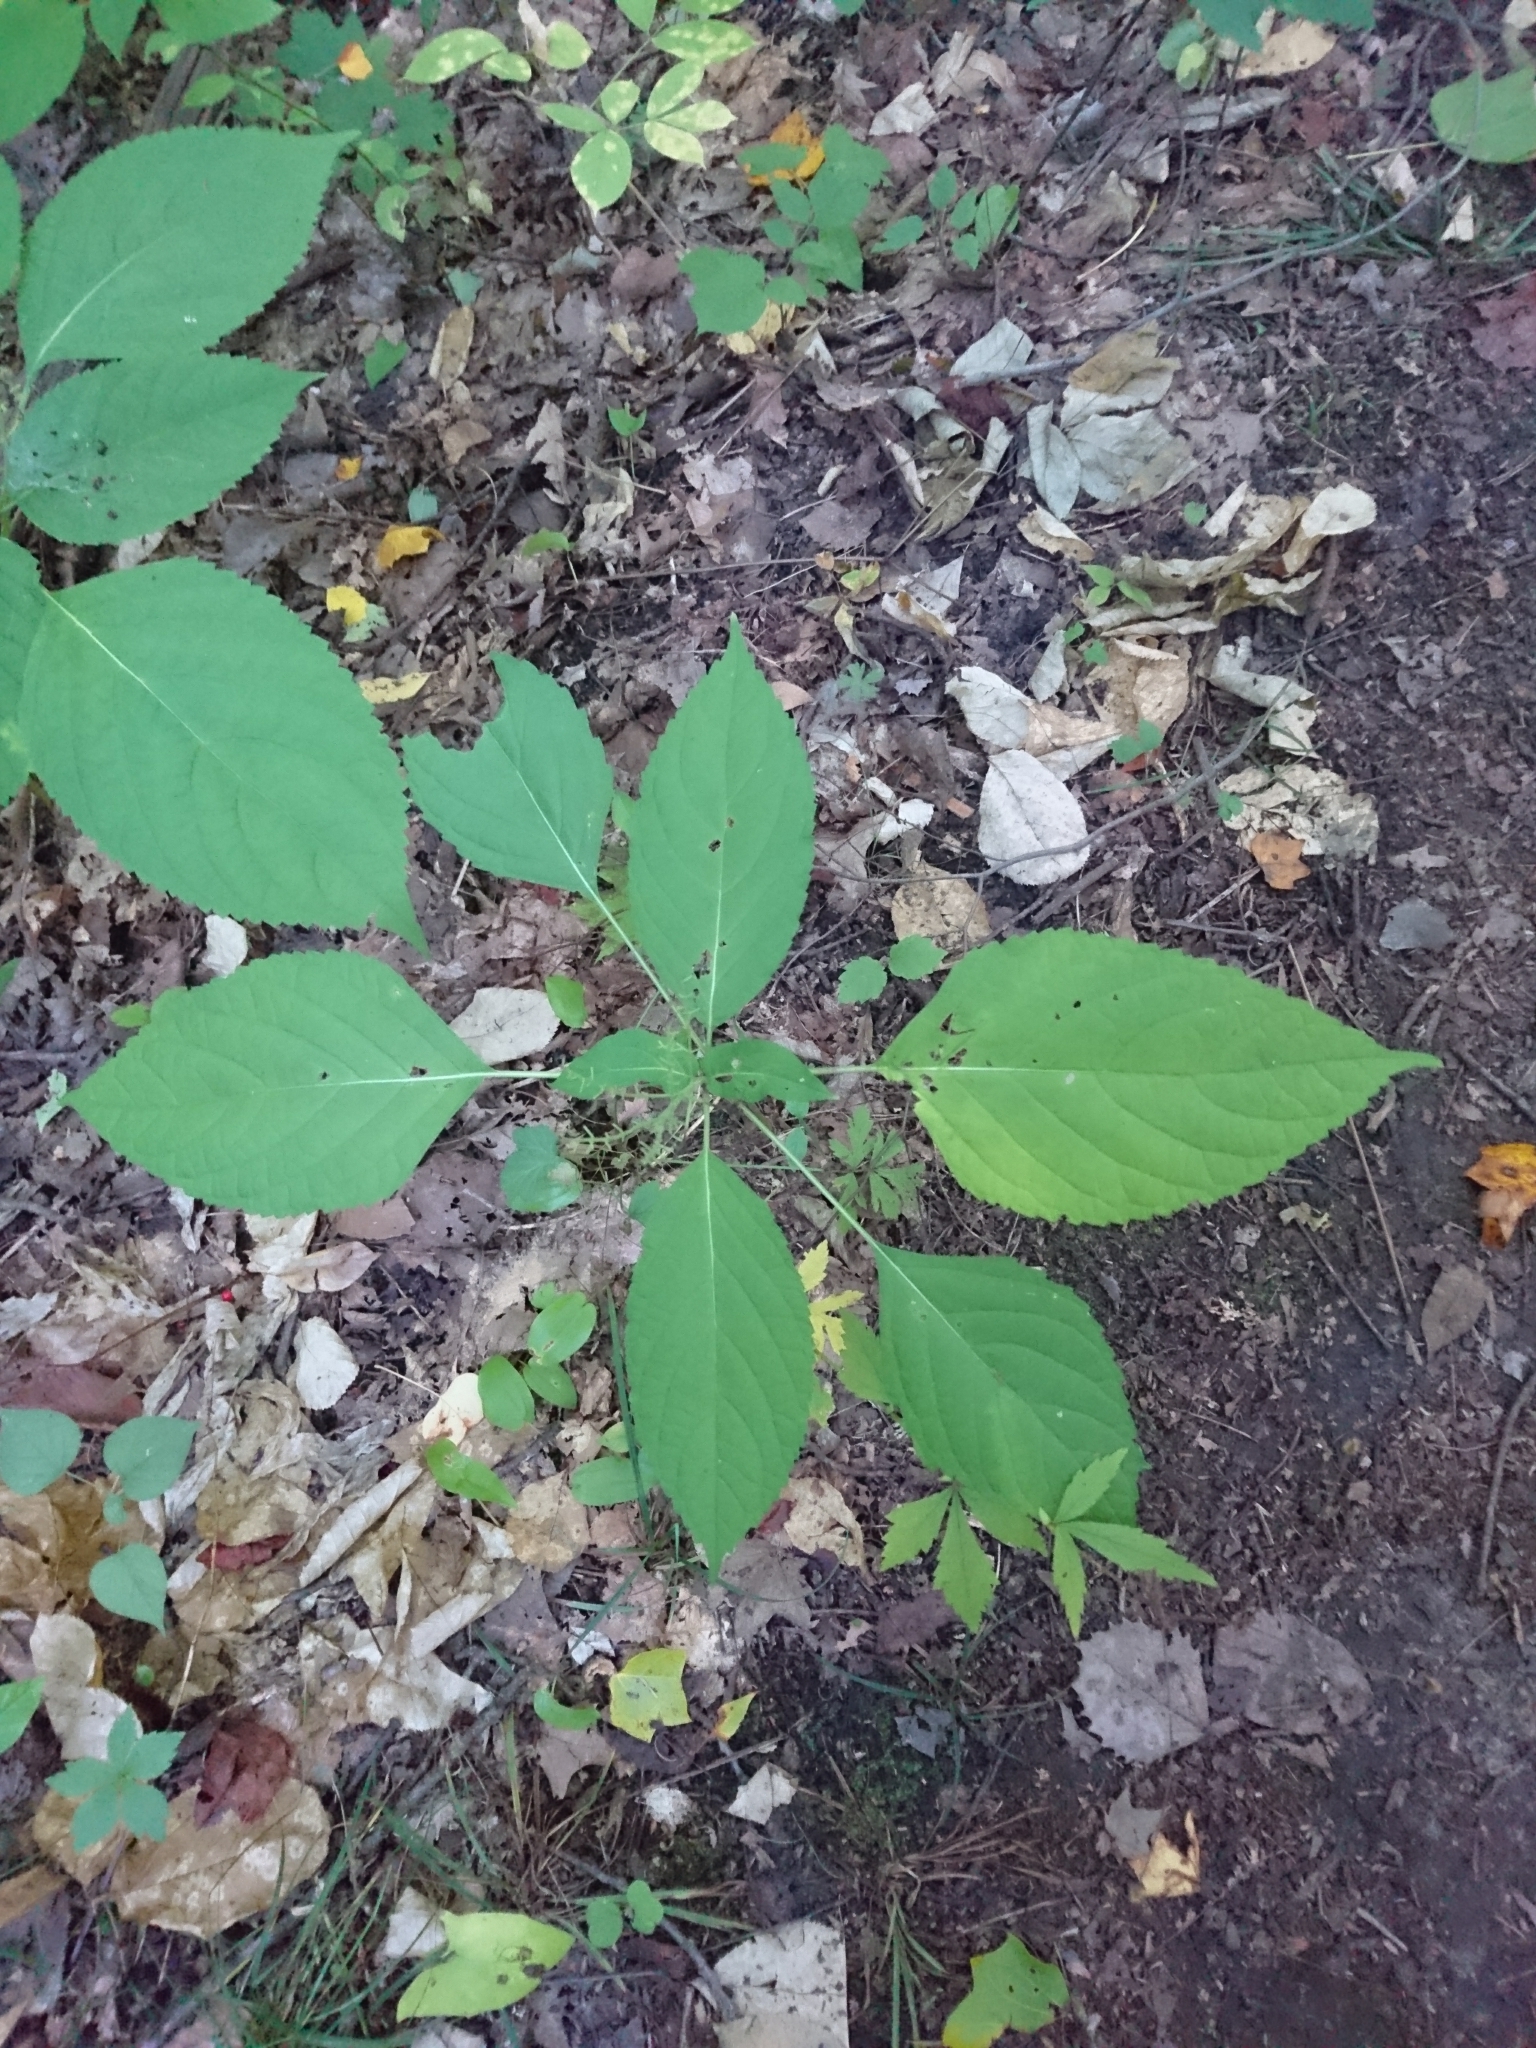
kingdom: Plantae
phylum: Tracheophyta
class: Magnoliopsida
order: Rosales
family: Urticaceae
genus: Laportea
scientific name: Laportea canadensis
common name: Canada nettle
